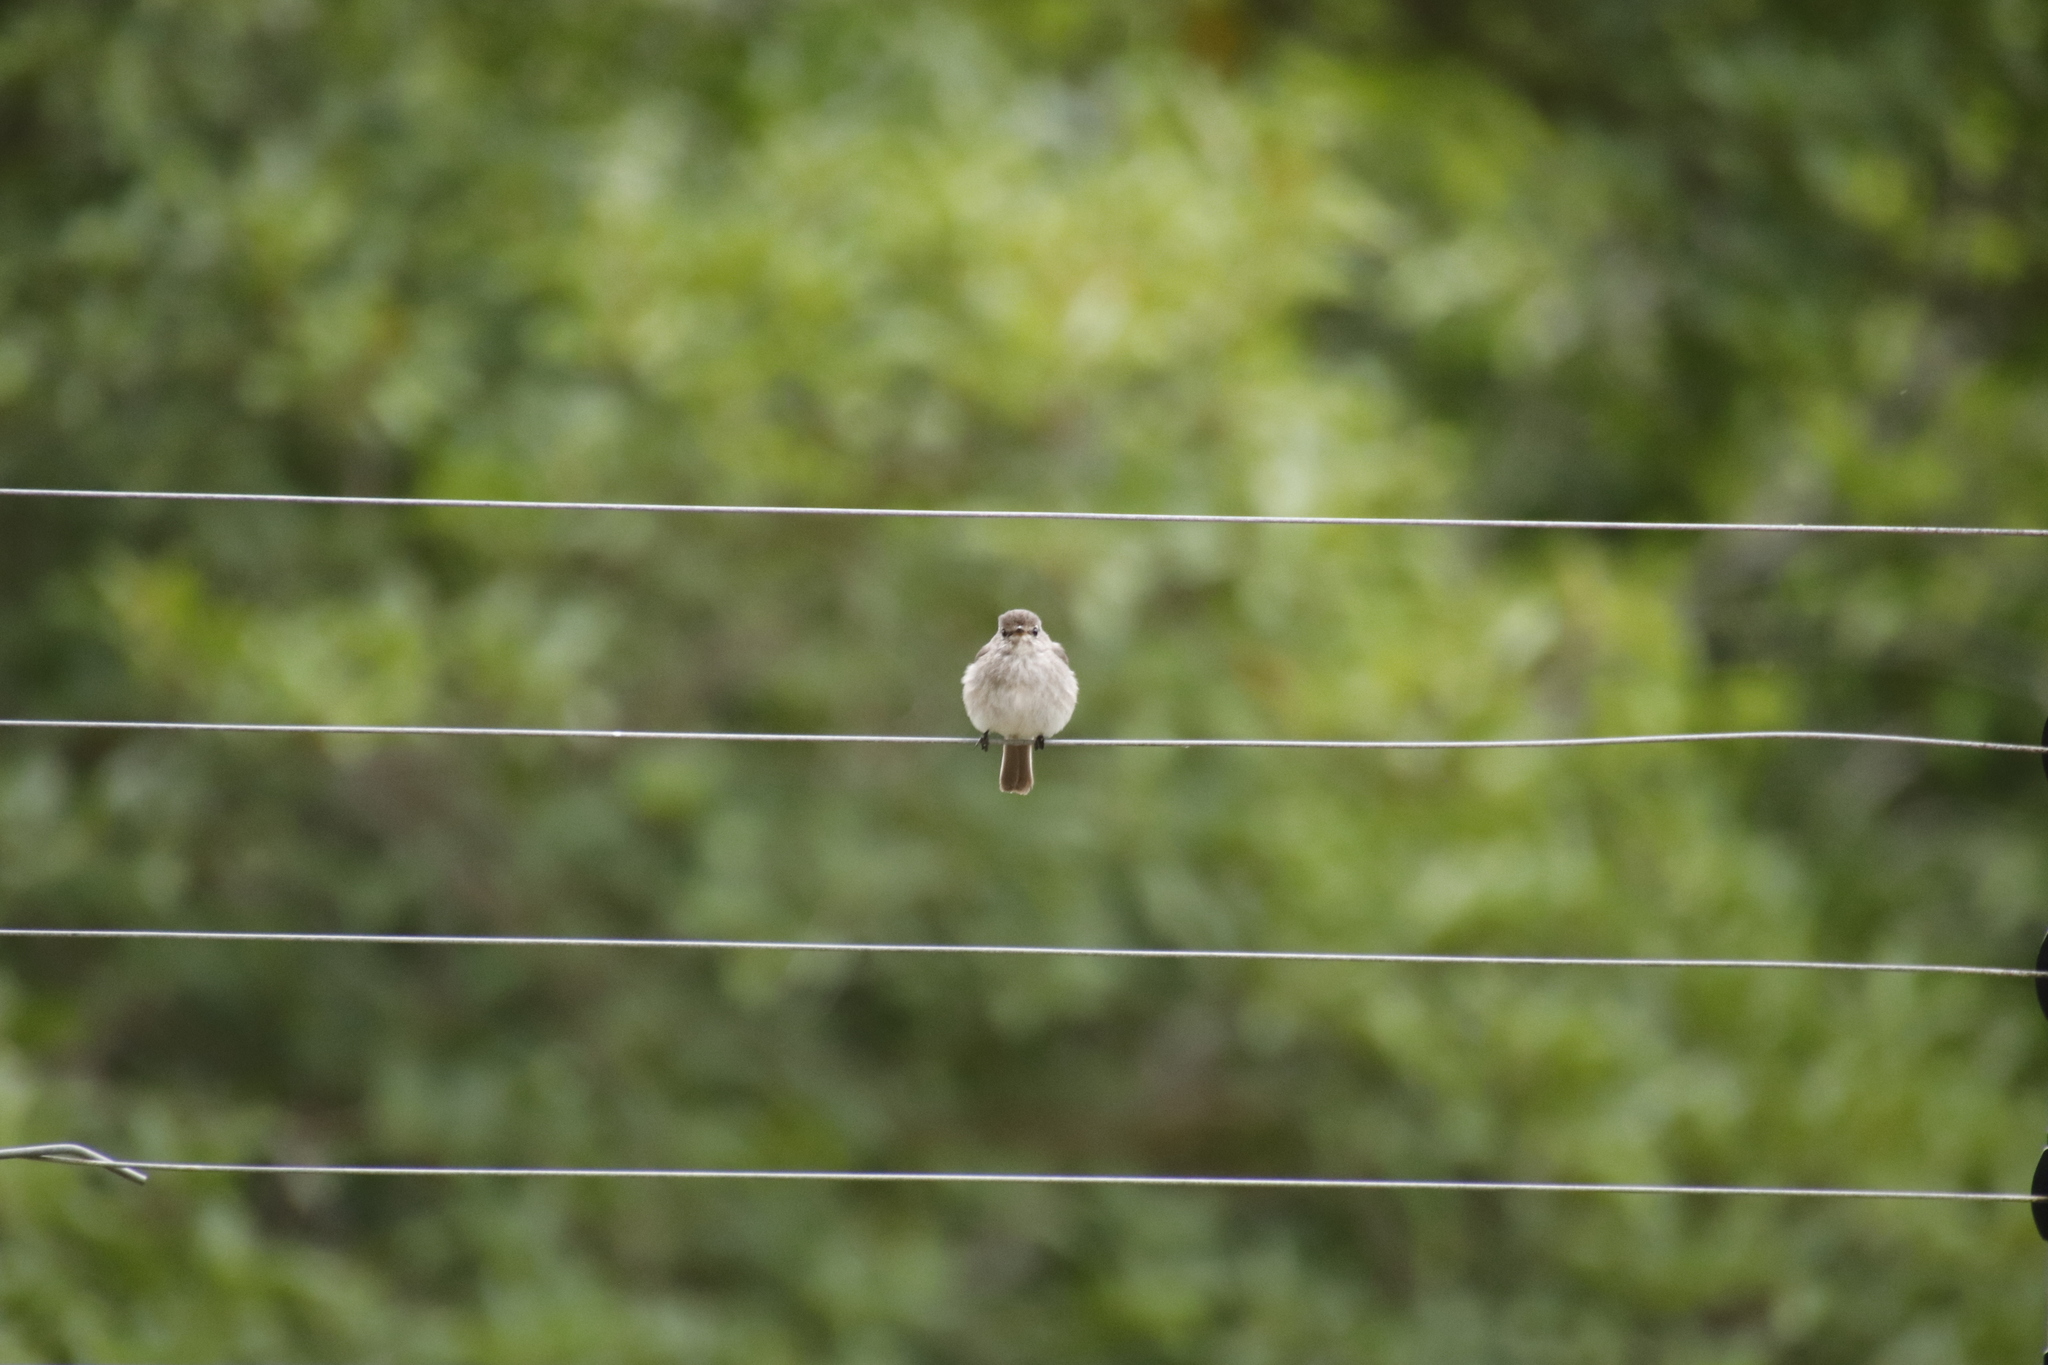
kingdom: Animalia
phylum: Chordata
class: Aves
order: Passeriformes
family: Muscicapidae
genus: Muscicapa
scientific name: Muscicapa adusta
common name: African dusky flycatcher
